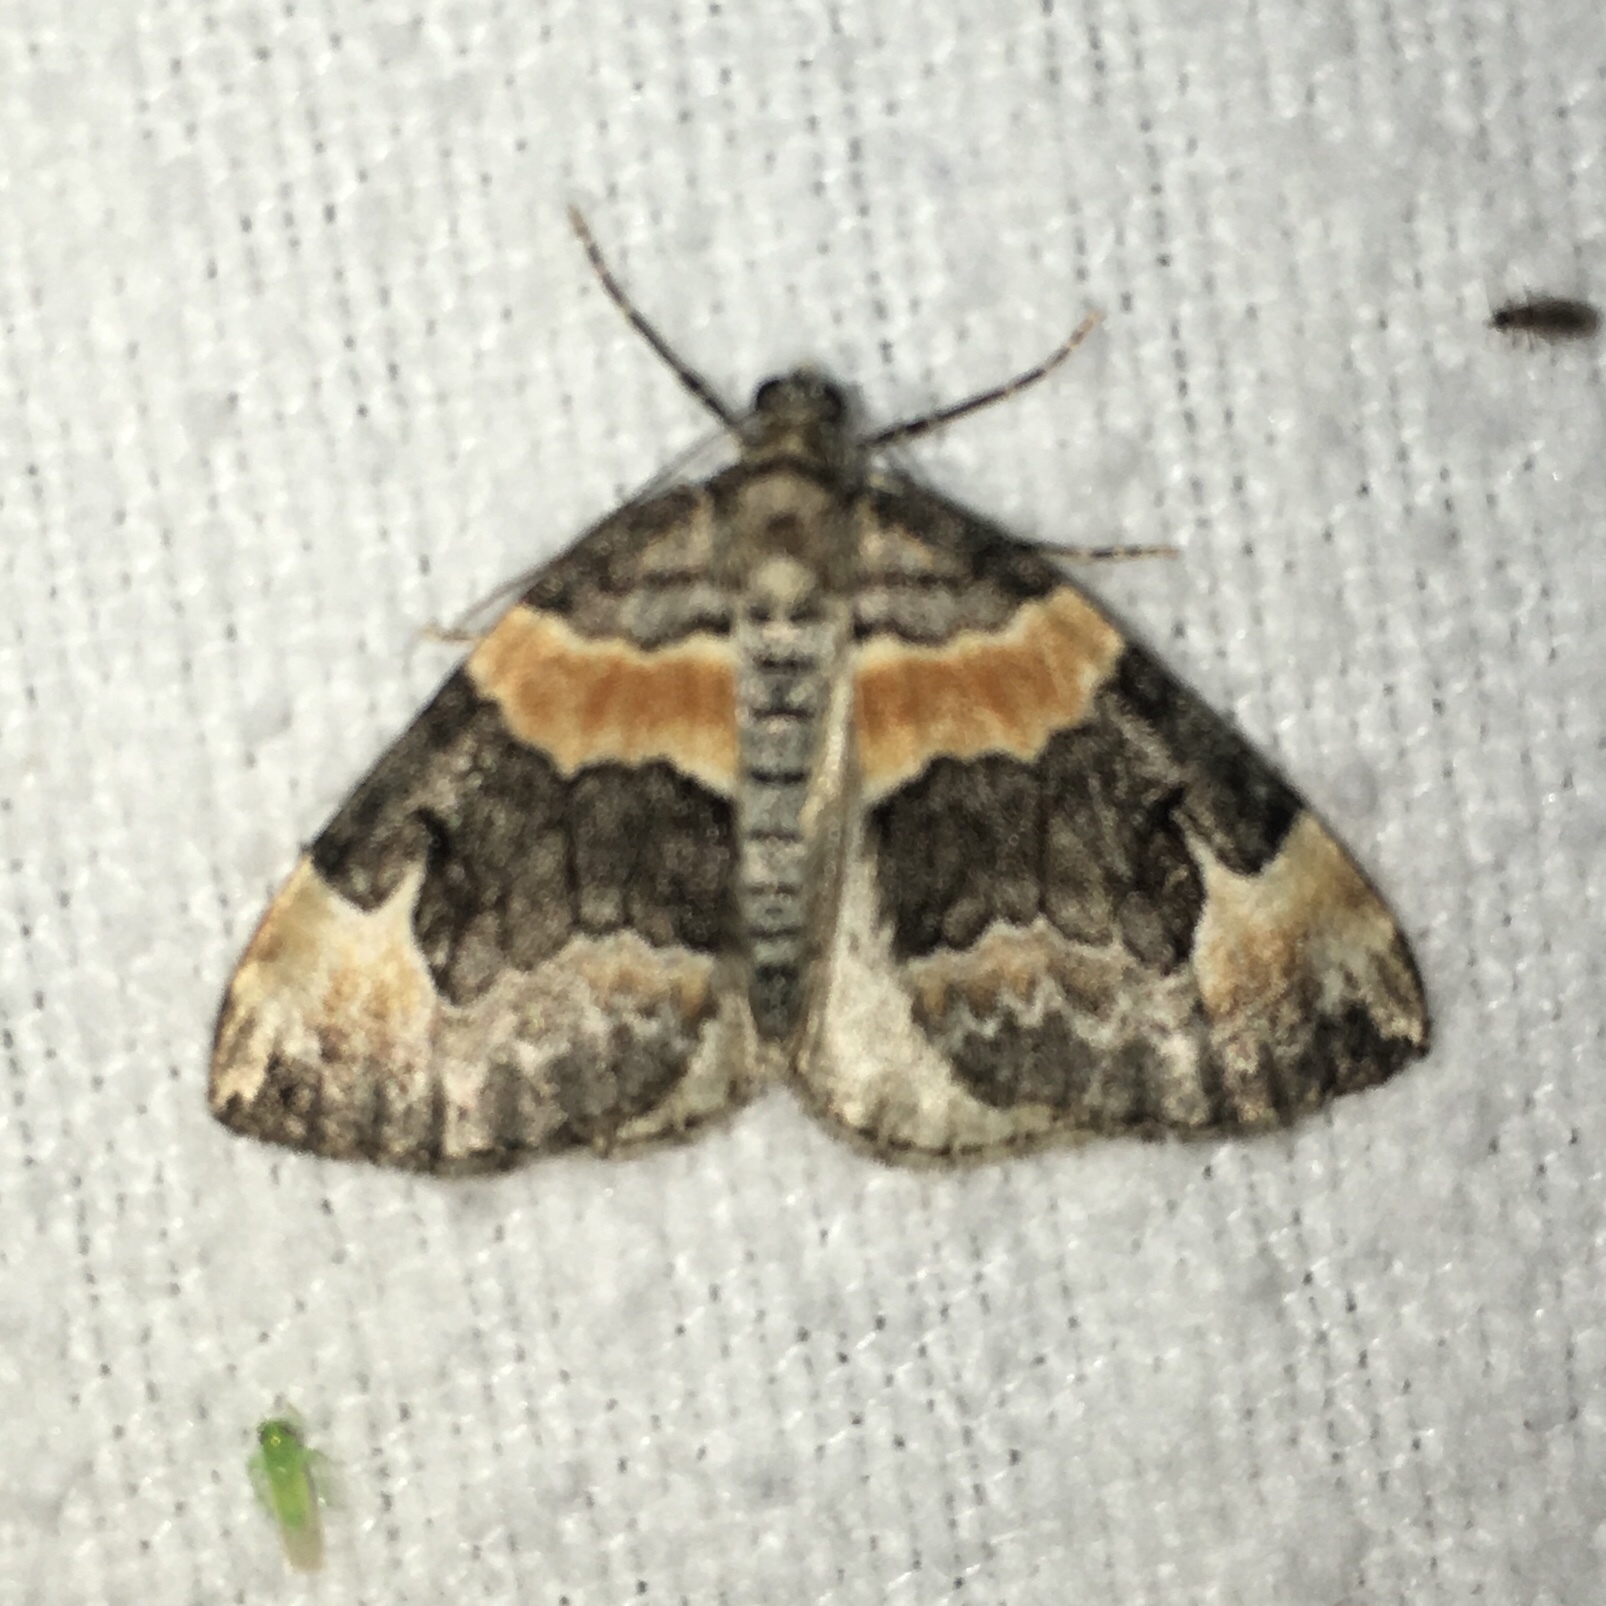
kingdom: Animalia
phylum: Arthropoda
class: Insecta
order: Lepidoptera
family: Geometridae
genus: Dysstroma
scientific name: Dysstroma hersiliata
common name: Orange-barred carpet
